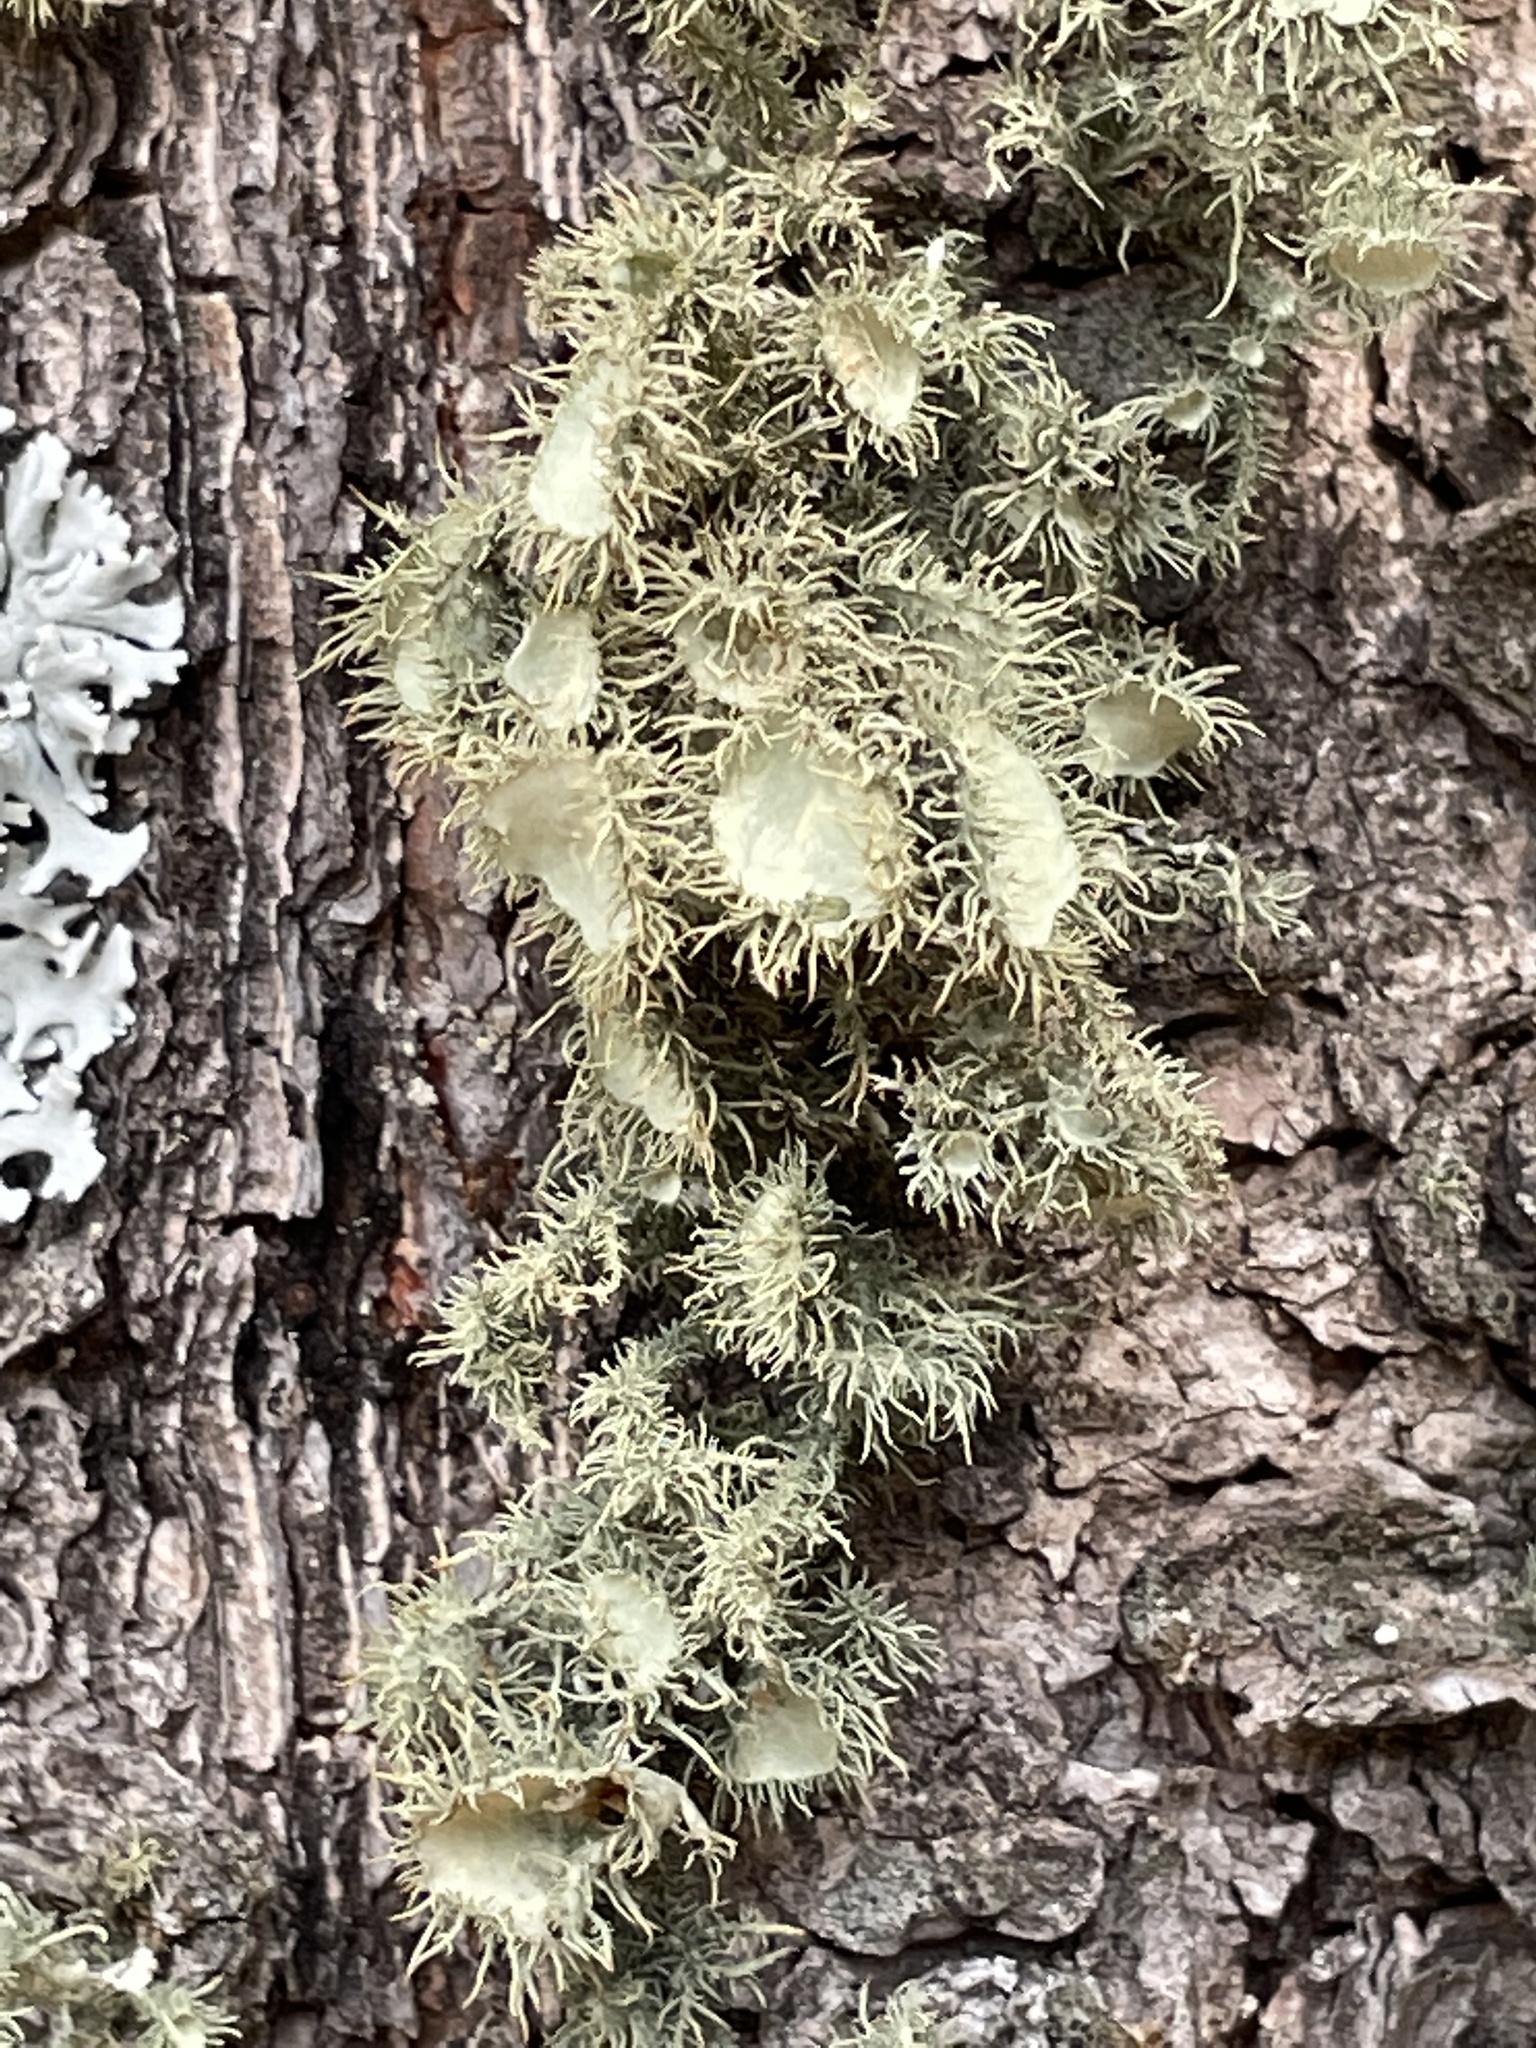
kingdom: Fungi
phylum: Ascomycota
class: Lecanoromycetes
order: Lecanorales
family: Parmeliaceae
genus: Usnea
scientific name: Usnea strigosa
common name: Bushy beard lichen
